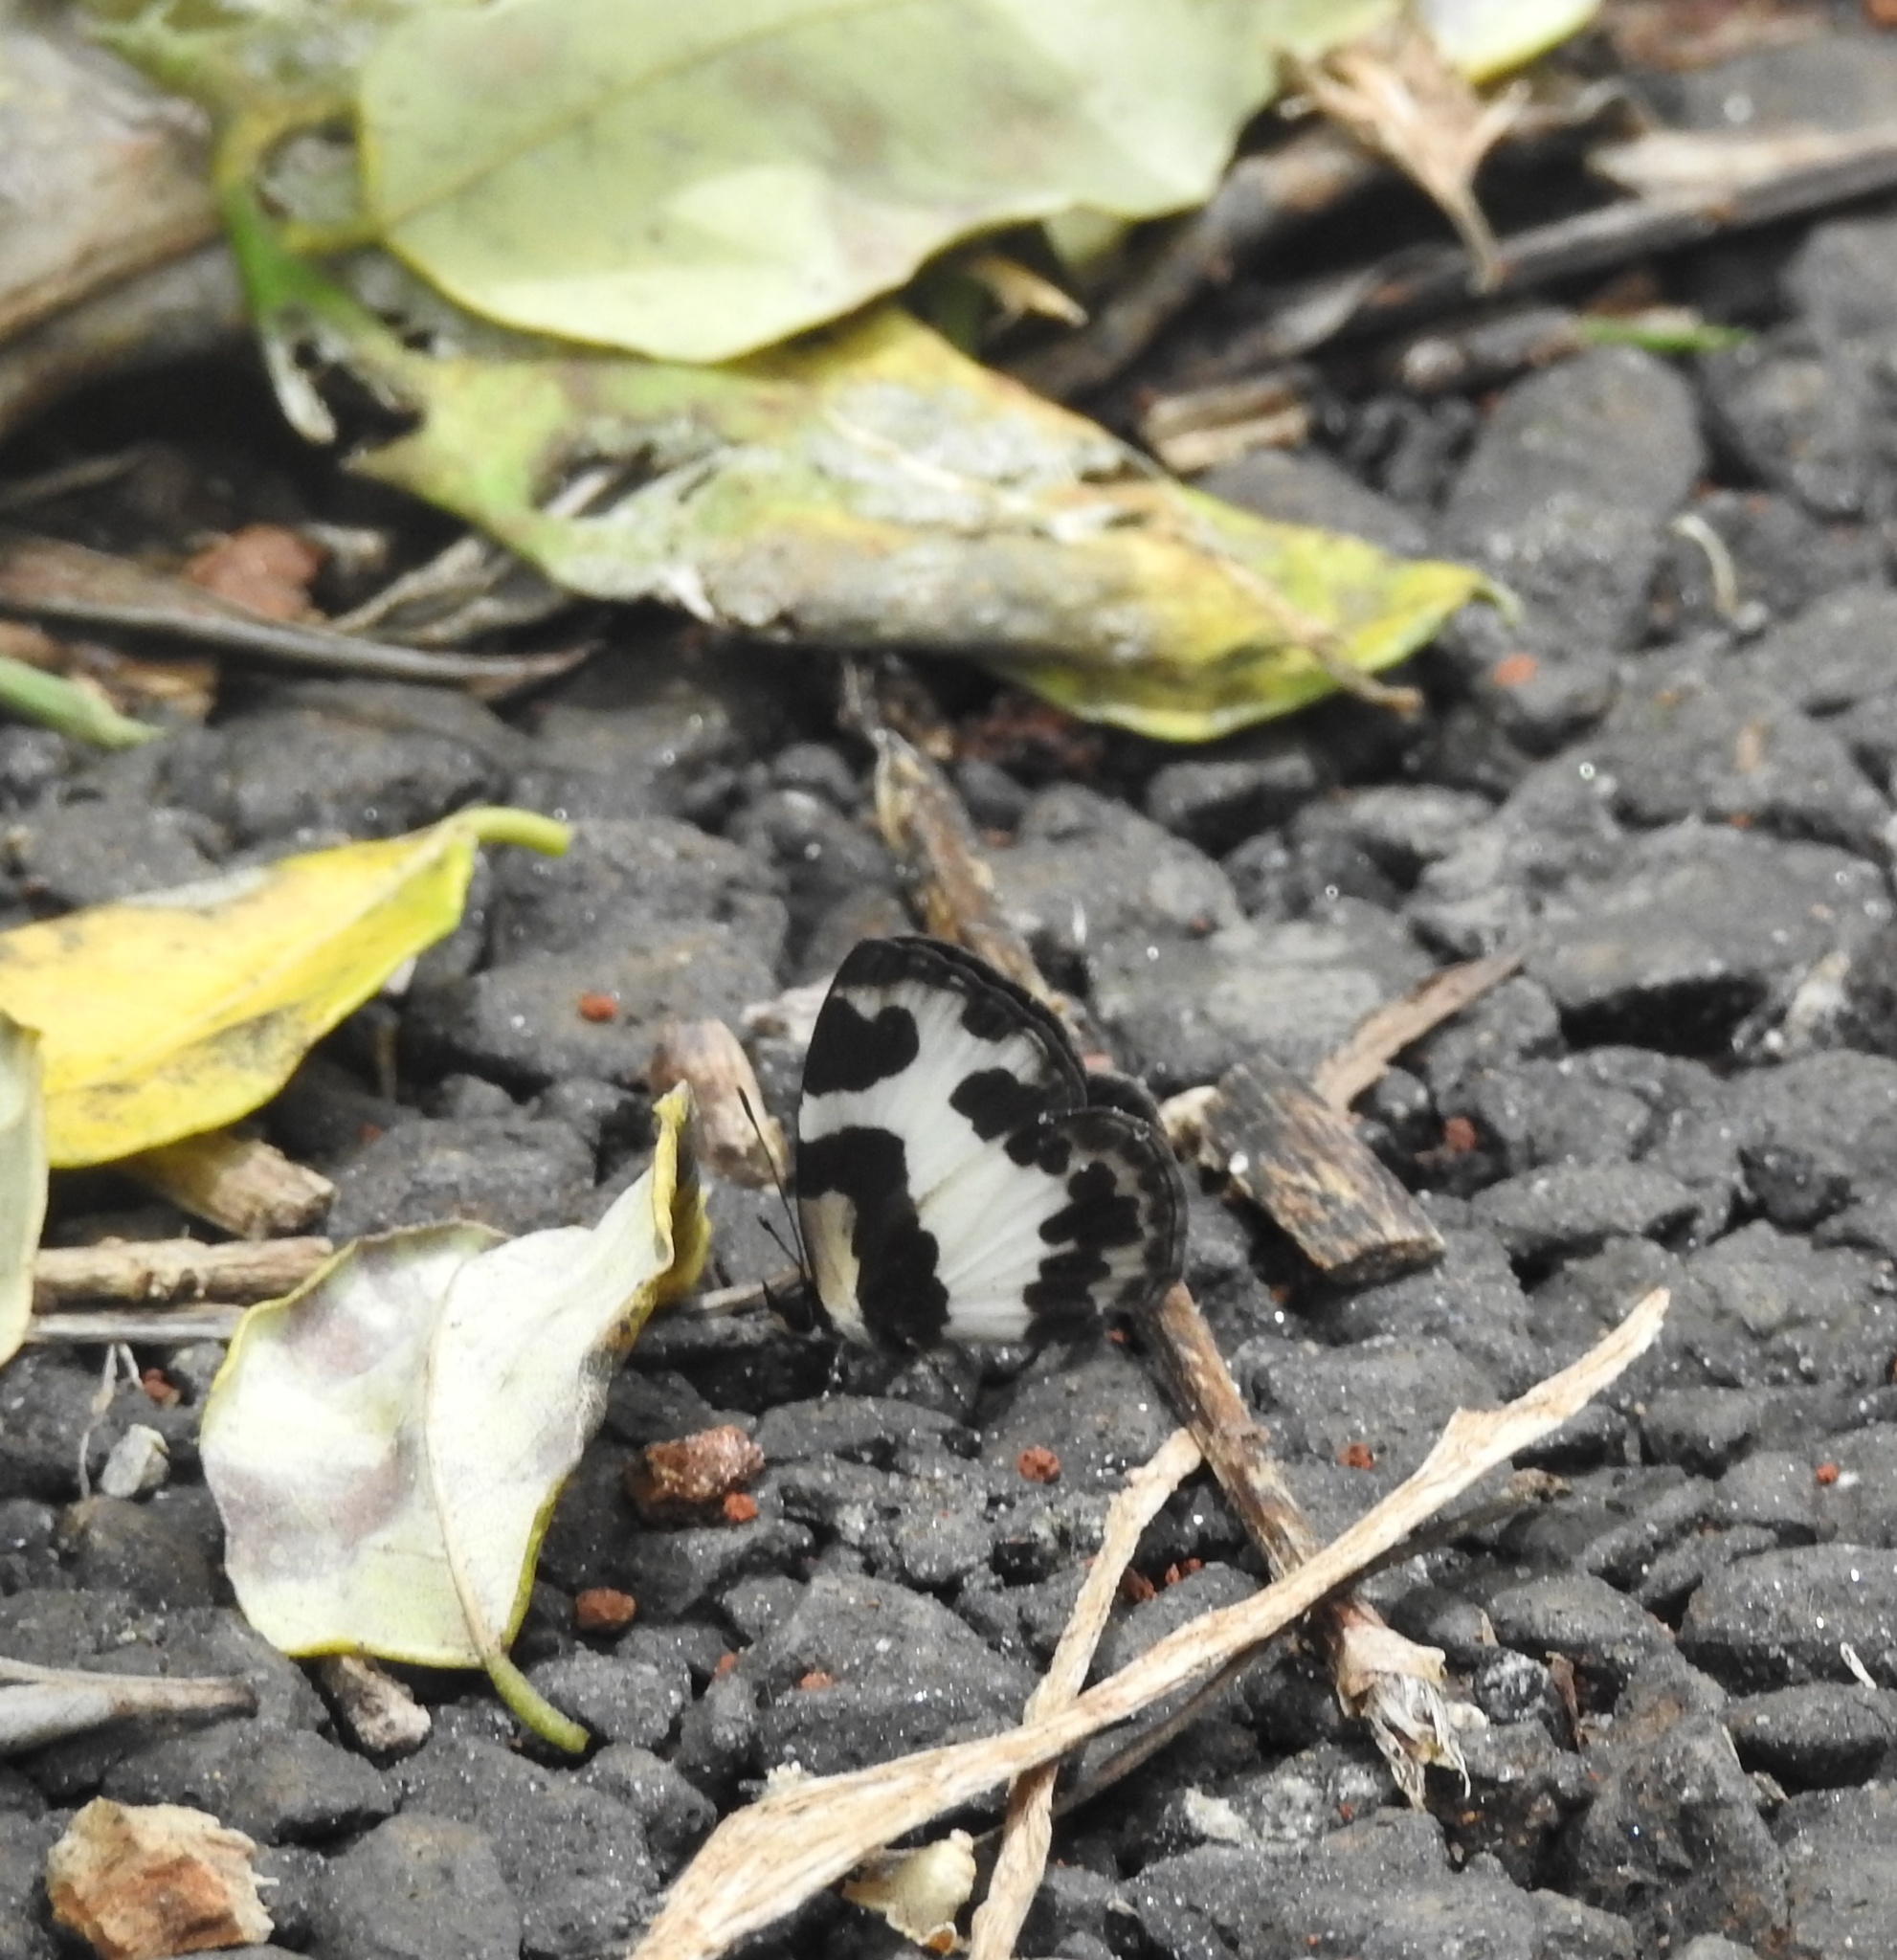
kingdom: Animalia
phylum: Arthropoda
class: Insecta
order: Lepidoptera
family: Lycaenidae
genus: Caleta
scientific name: Caleta elna
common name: Elbowed pierrot
